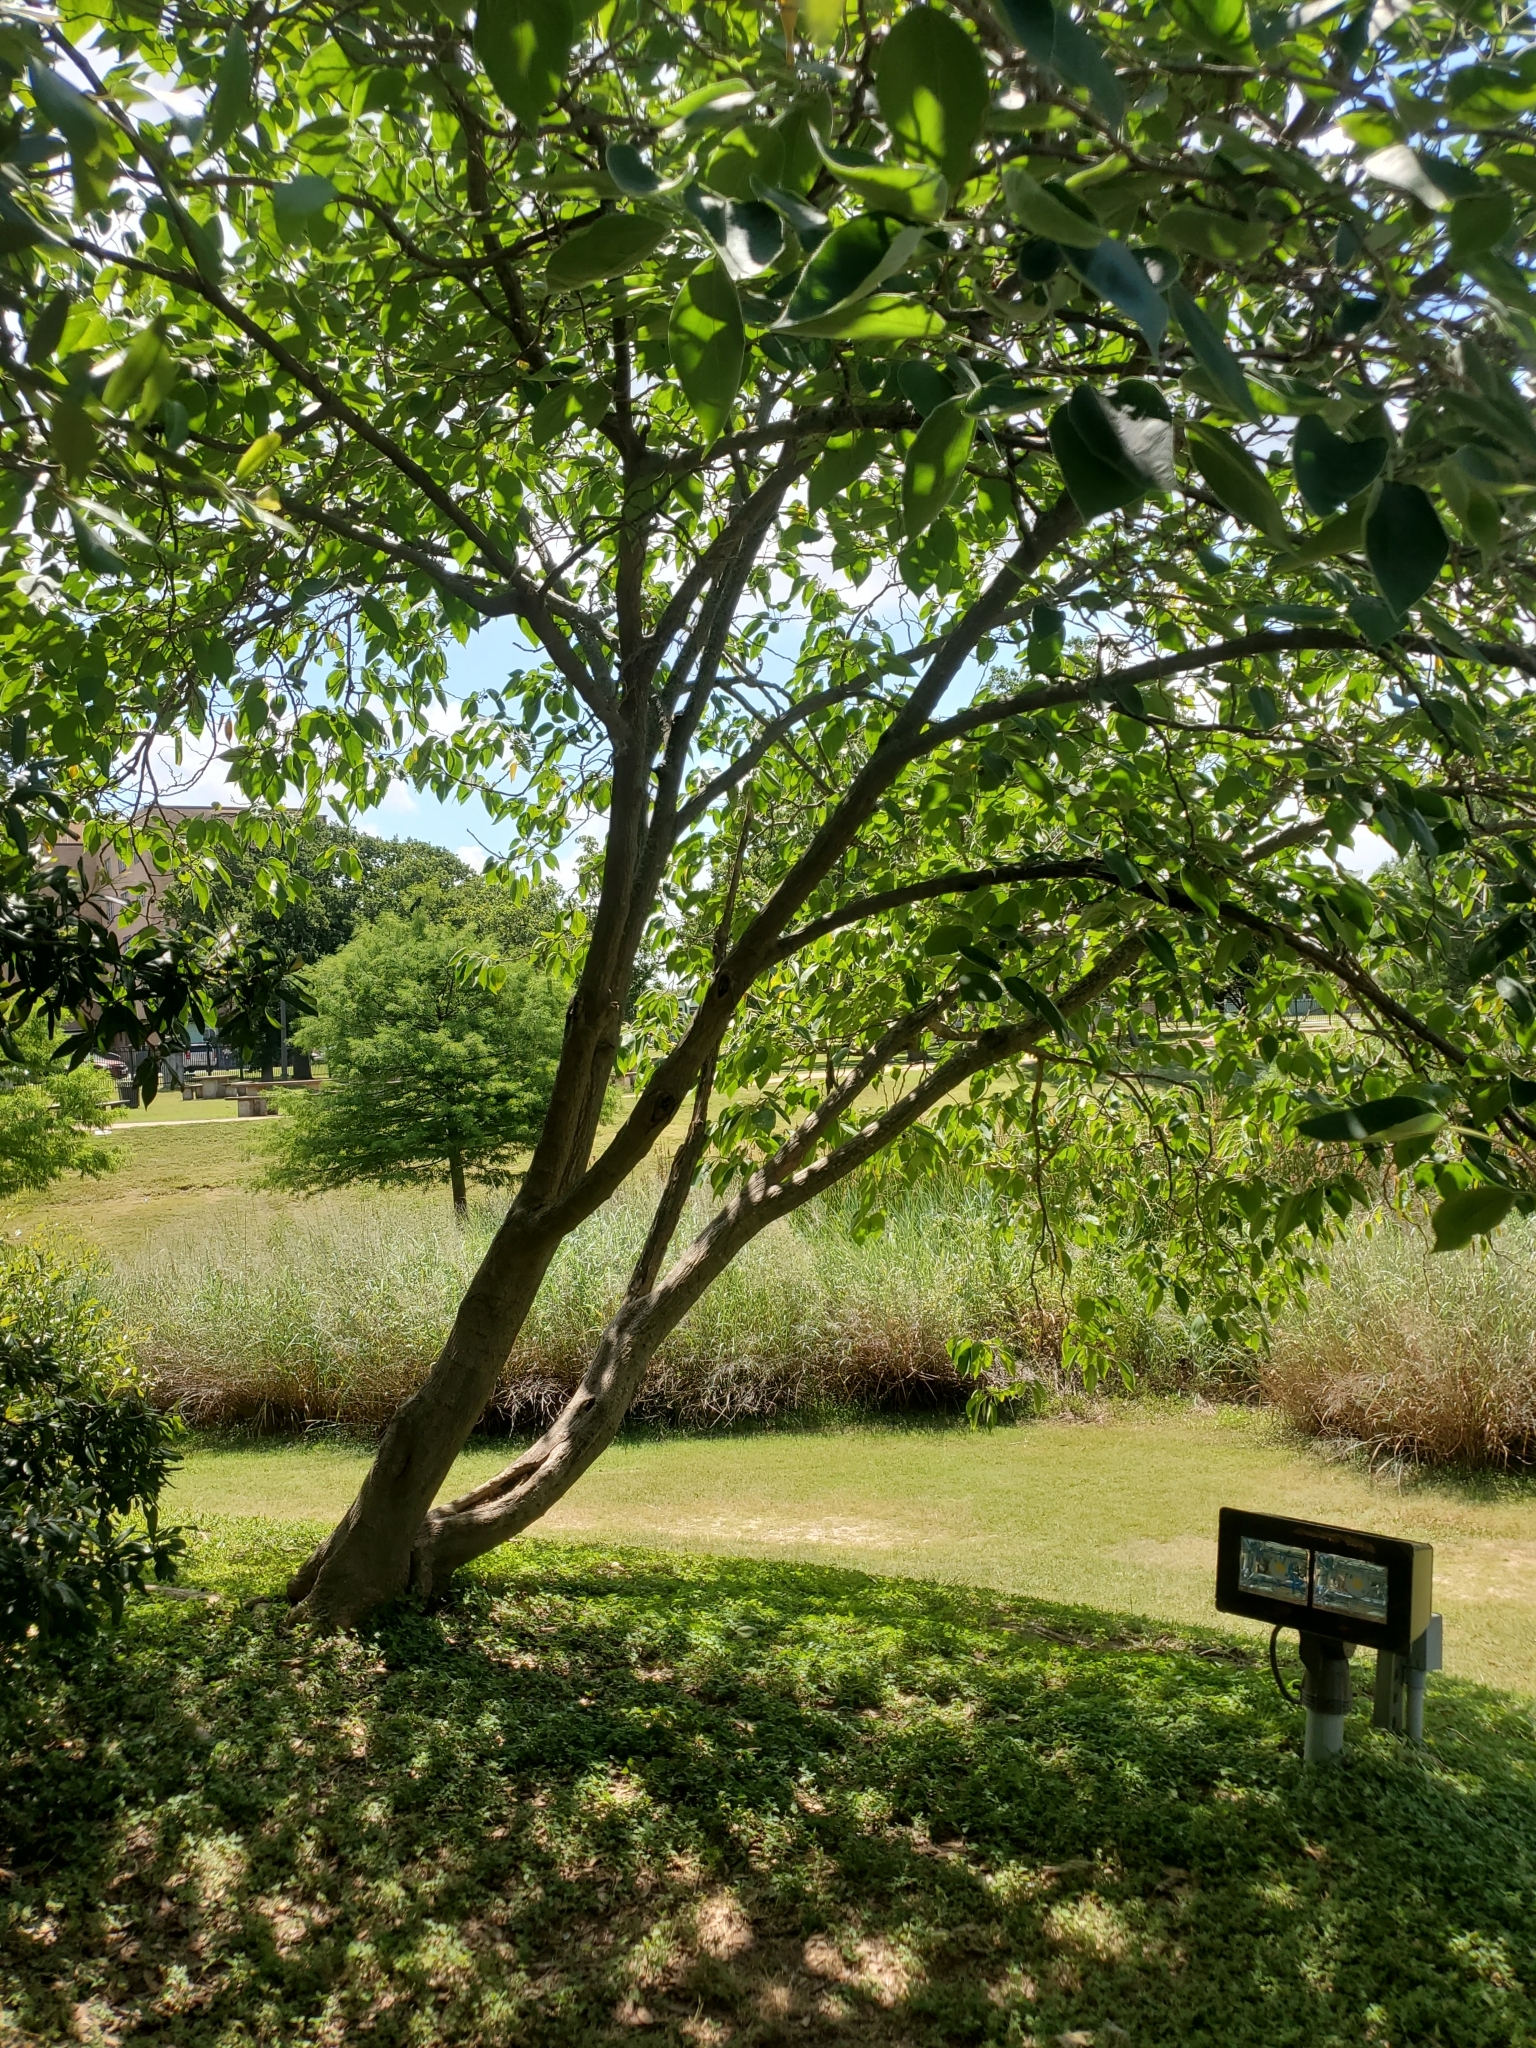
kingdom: Plantae
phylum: Tracheophyta
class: Magnoliopsida
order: Rosales
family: Moraceae
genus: Broussonetia
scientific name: Broussonetia papyrifera
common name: Paper mulberry
